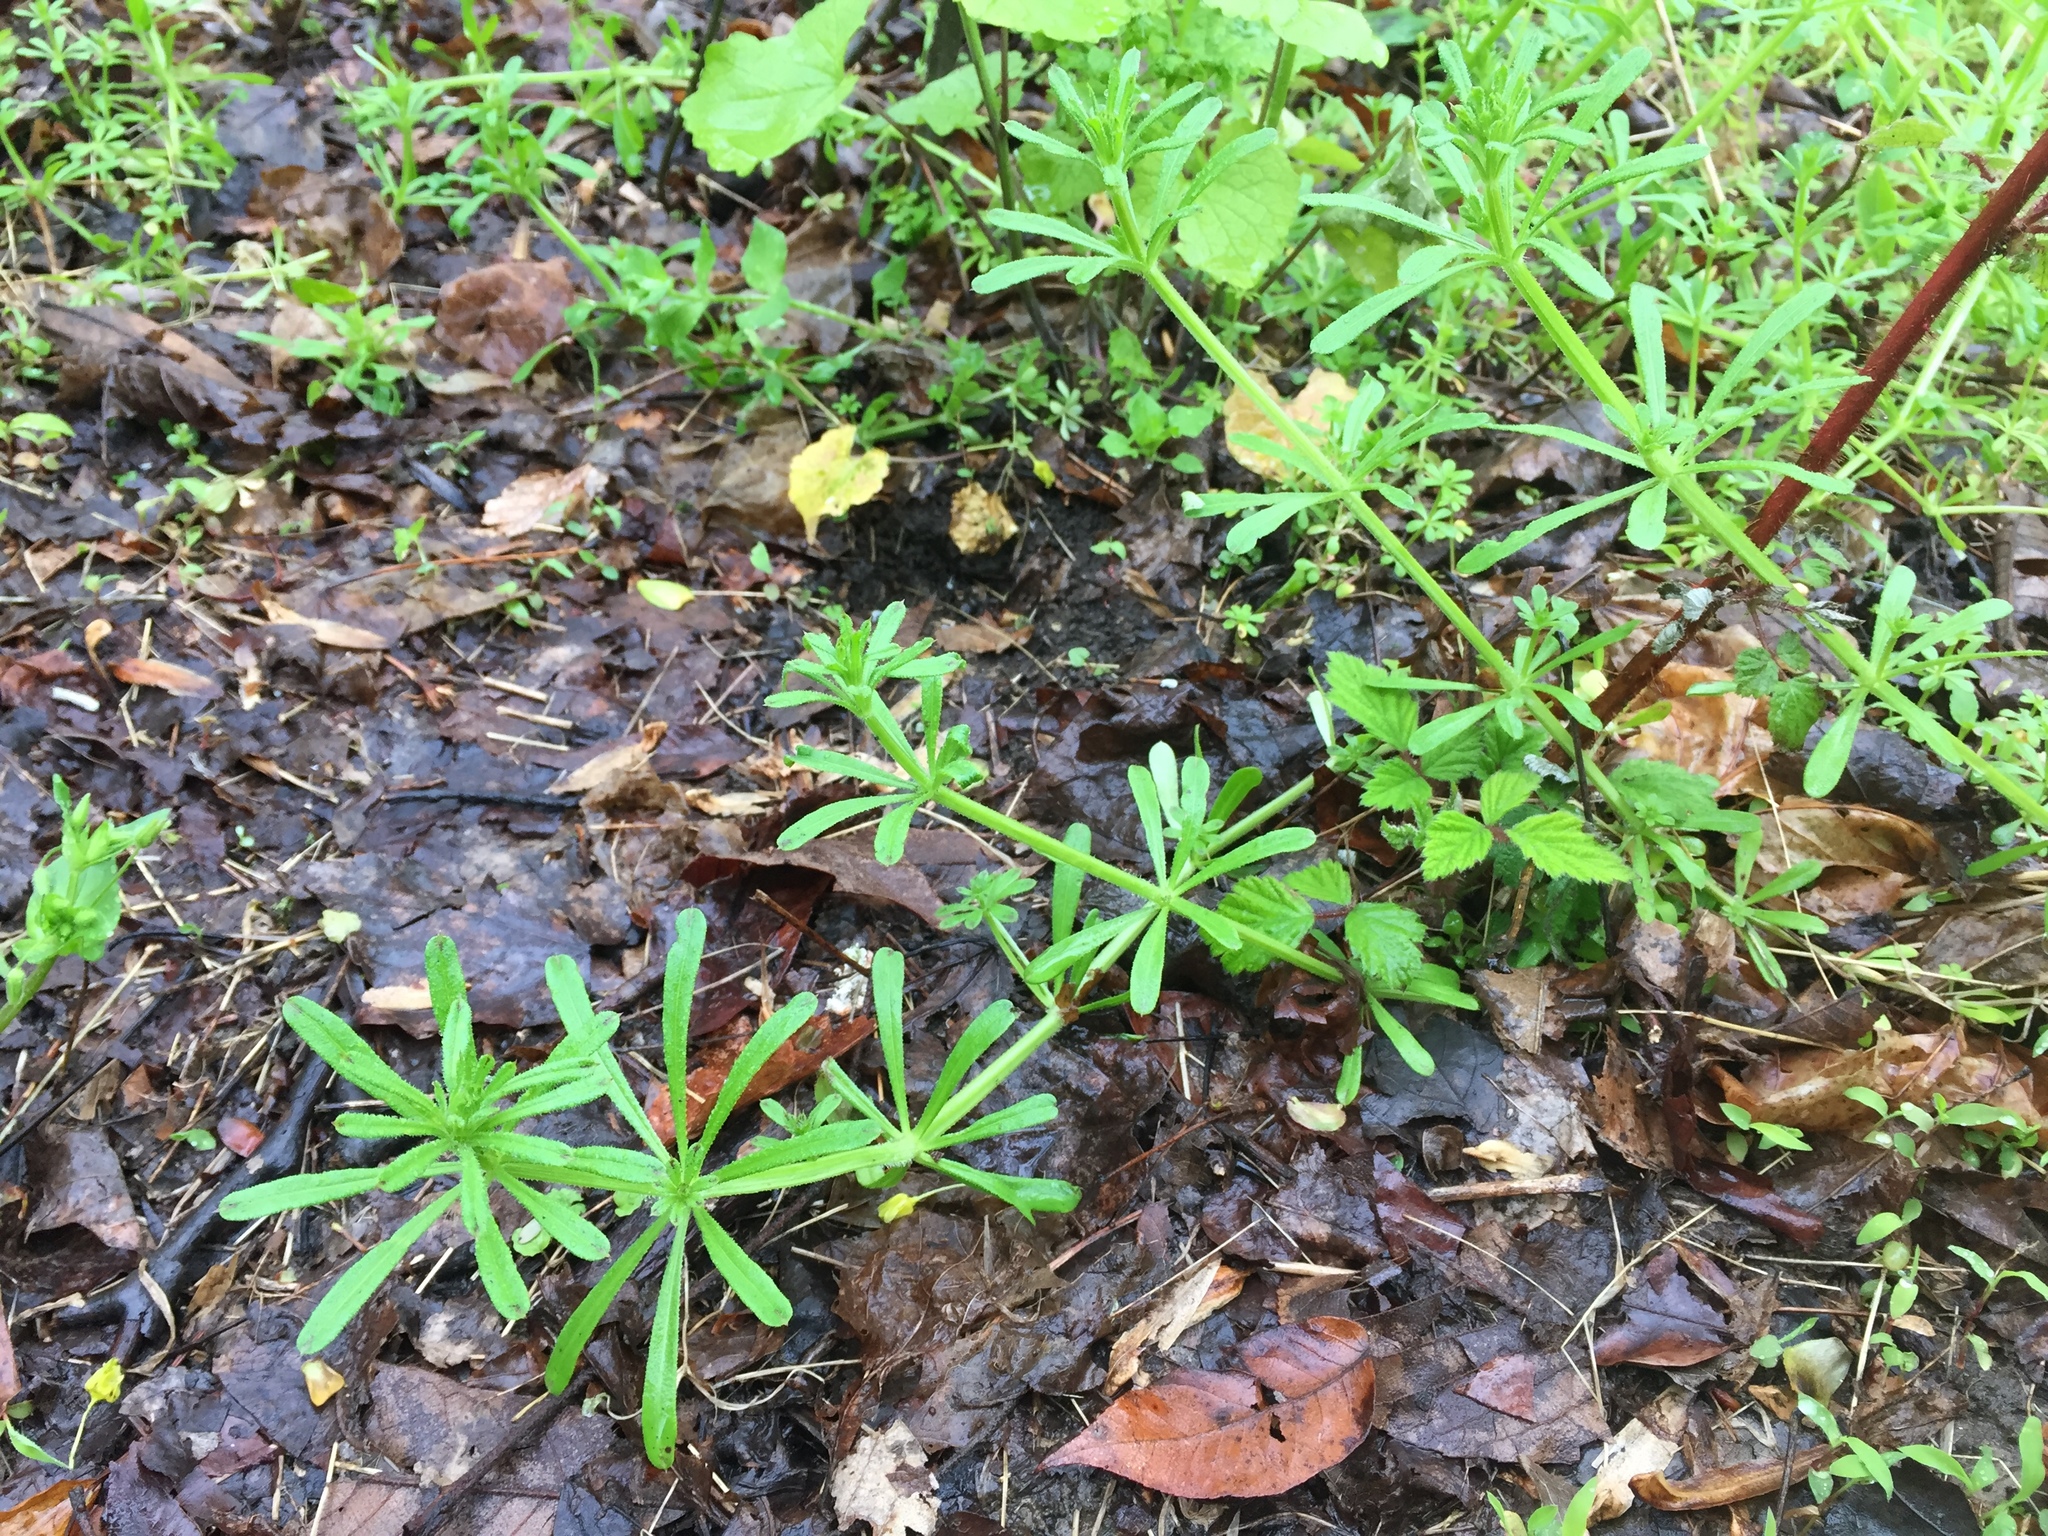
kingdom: Plantae
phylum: Tracheophyta
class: Magnoliopsida
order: Gentianales
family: Rubiaceae
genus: Galium
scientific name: Galium aparine
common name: Cleavers
